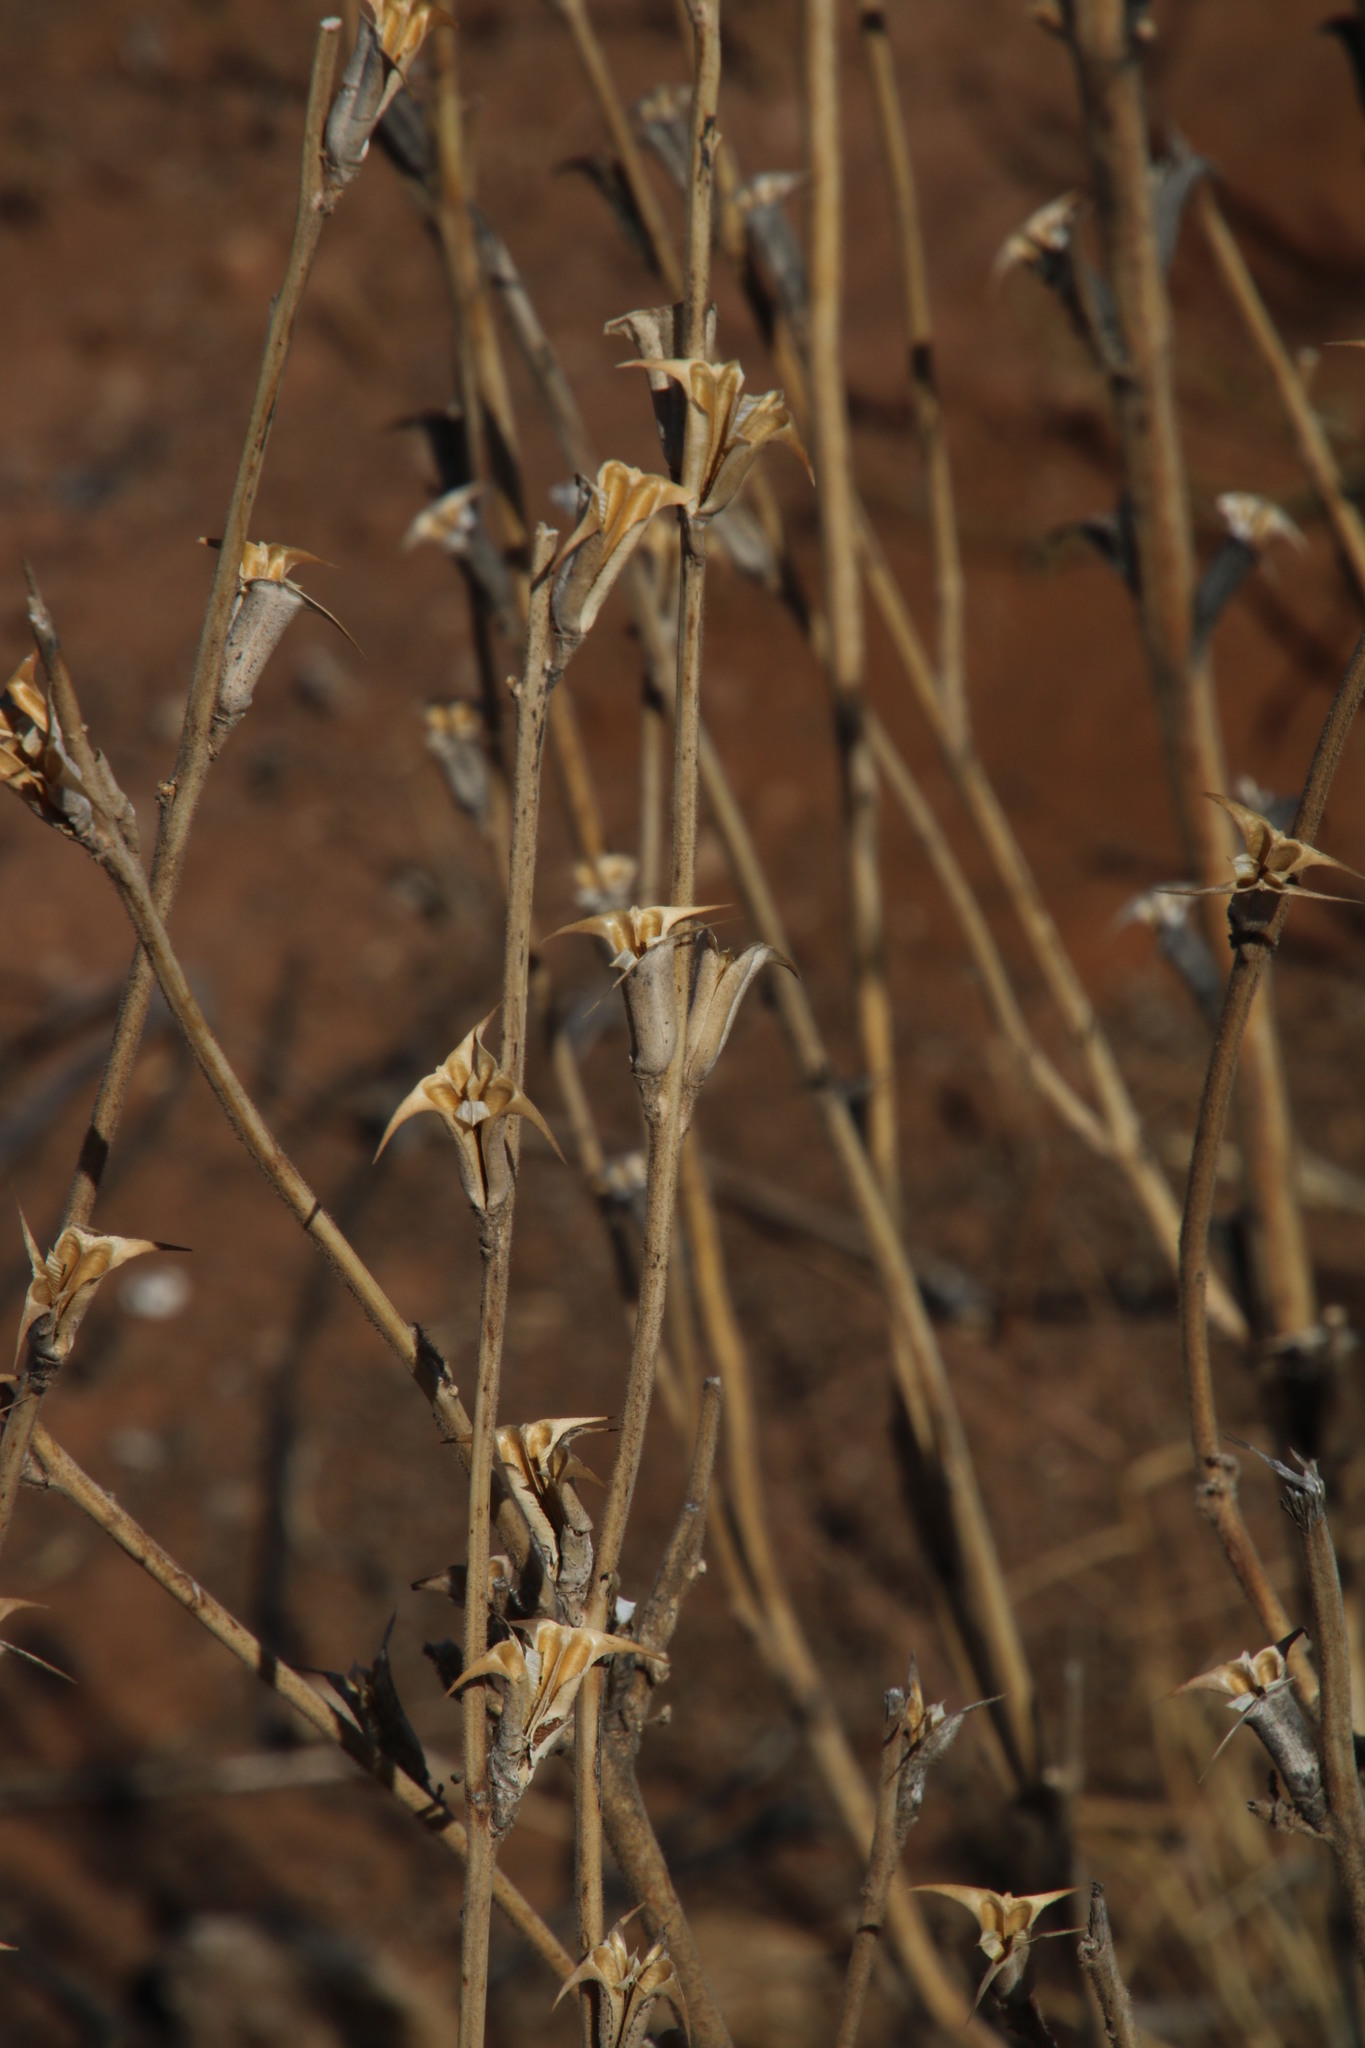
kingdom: Plantae
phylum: Tracheophyta
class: Magnoliopsida
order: Lamiales
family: Pedaliaceae
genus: Sesamum
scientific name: Sesamum trilobum
